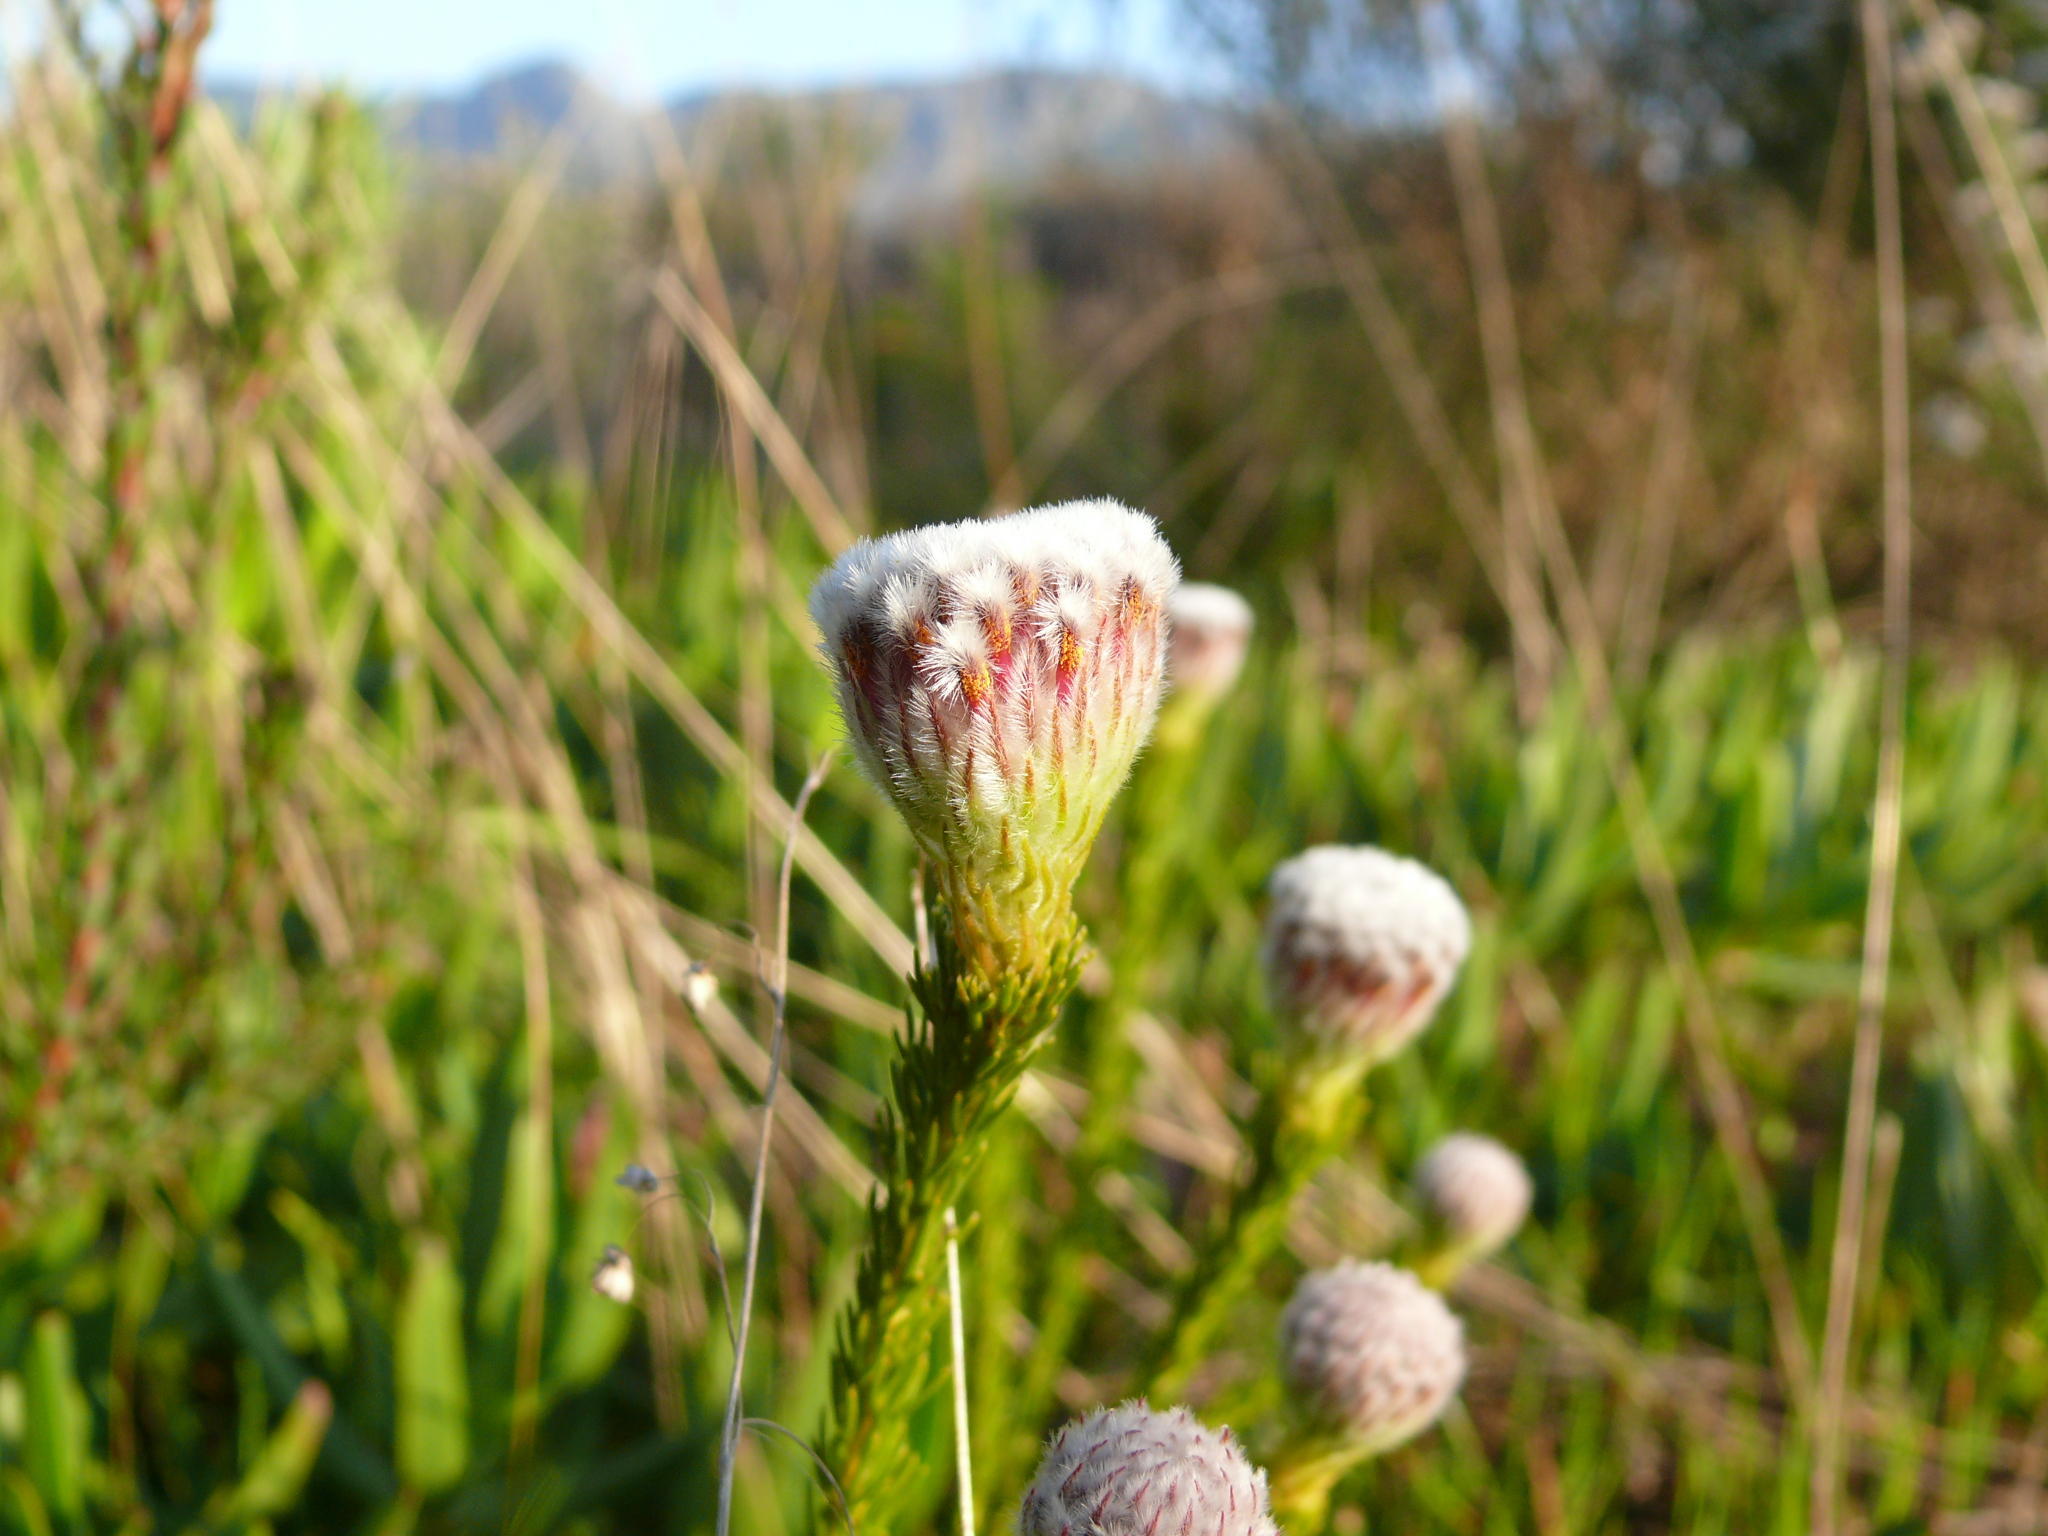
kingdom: Plantae
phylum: Tracheophyta
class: Magnoliopsida
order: Proteales
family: Proteaceae
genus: Serruria
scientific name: Serruria trilopha
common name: Trident spiderhead
